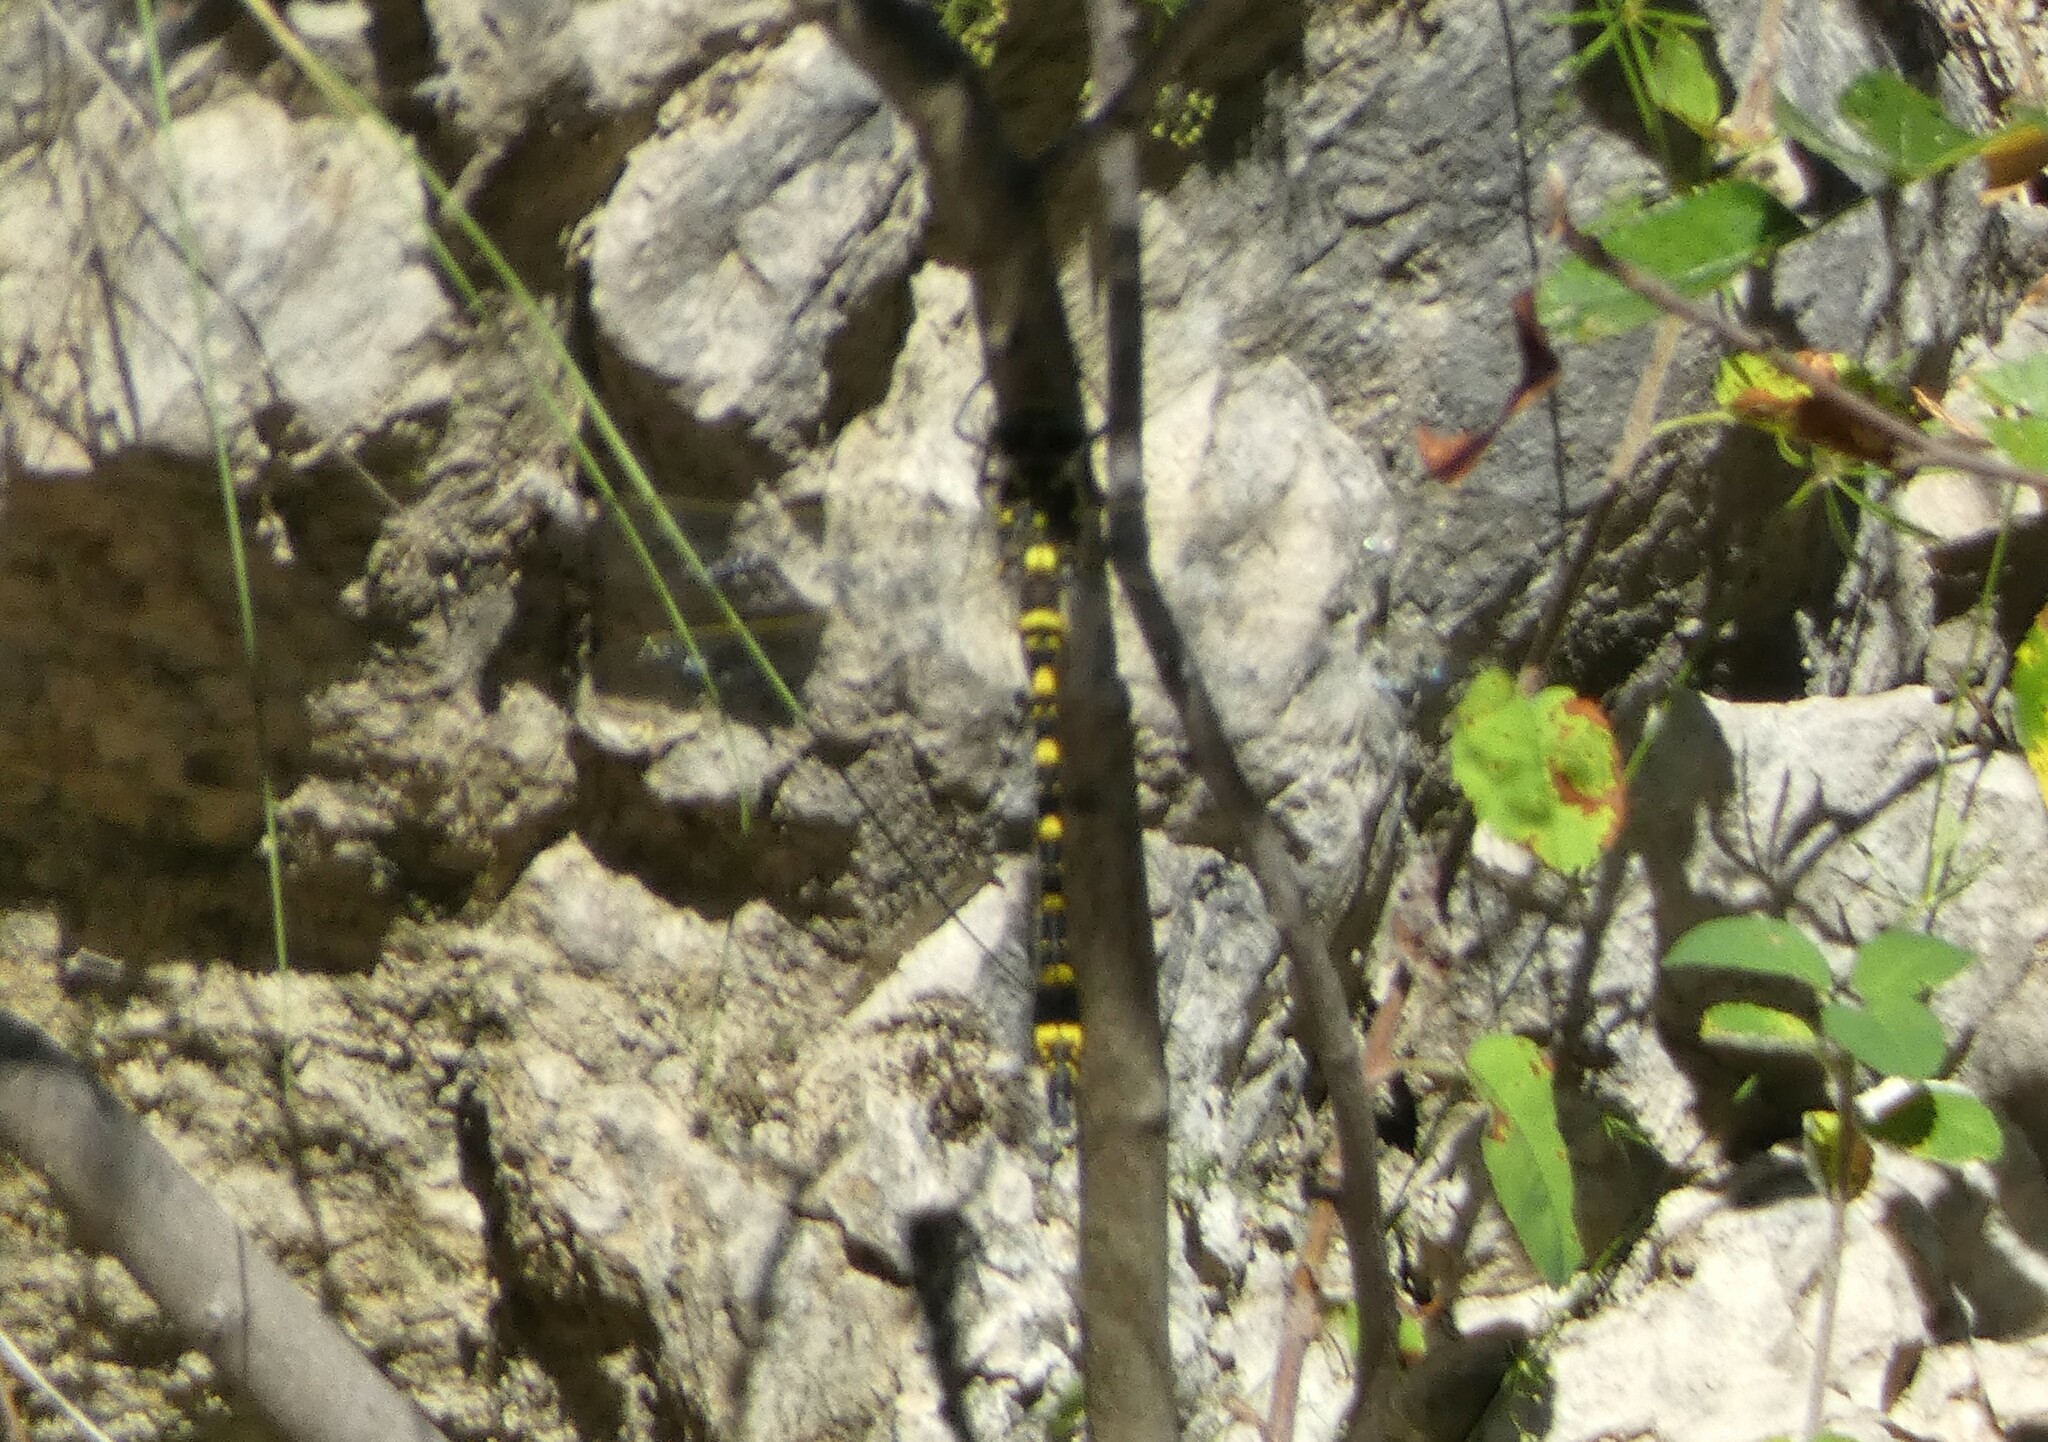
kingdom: Animalia
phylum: Arthropoda
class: Insecta
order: Odonata
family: Cordulegastridae
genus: Cordulegaster
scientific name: Cordulegaster boltonii
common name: Golden-ringed dragonfly
